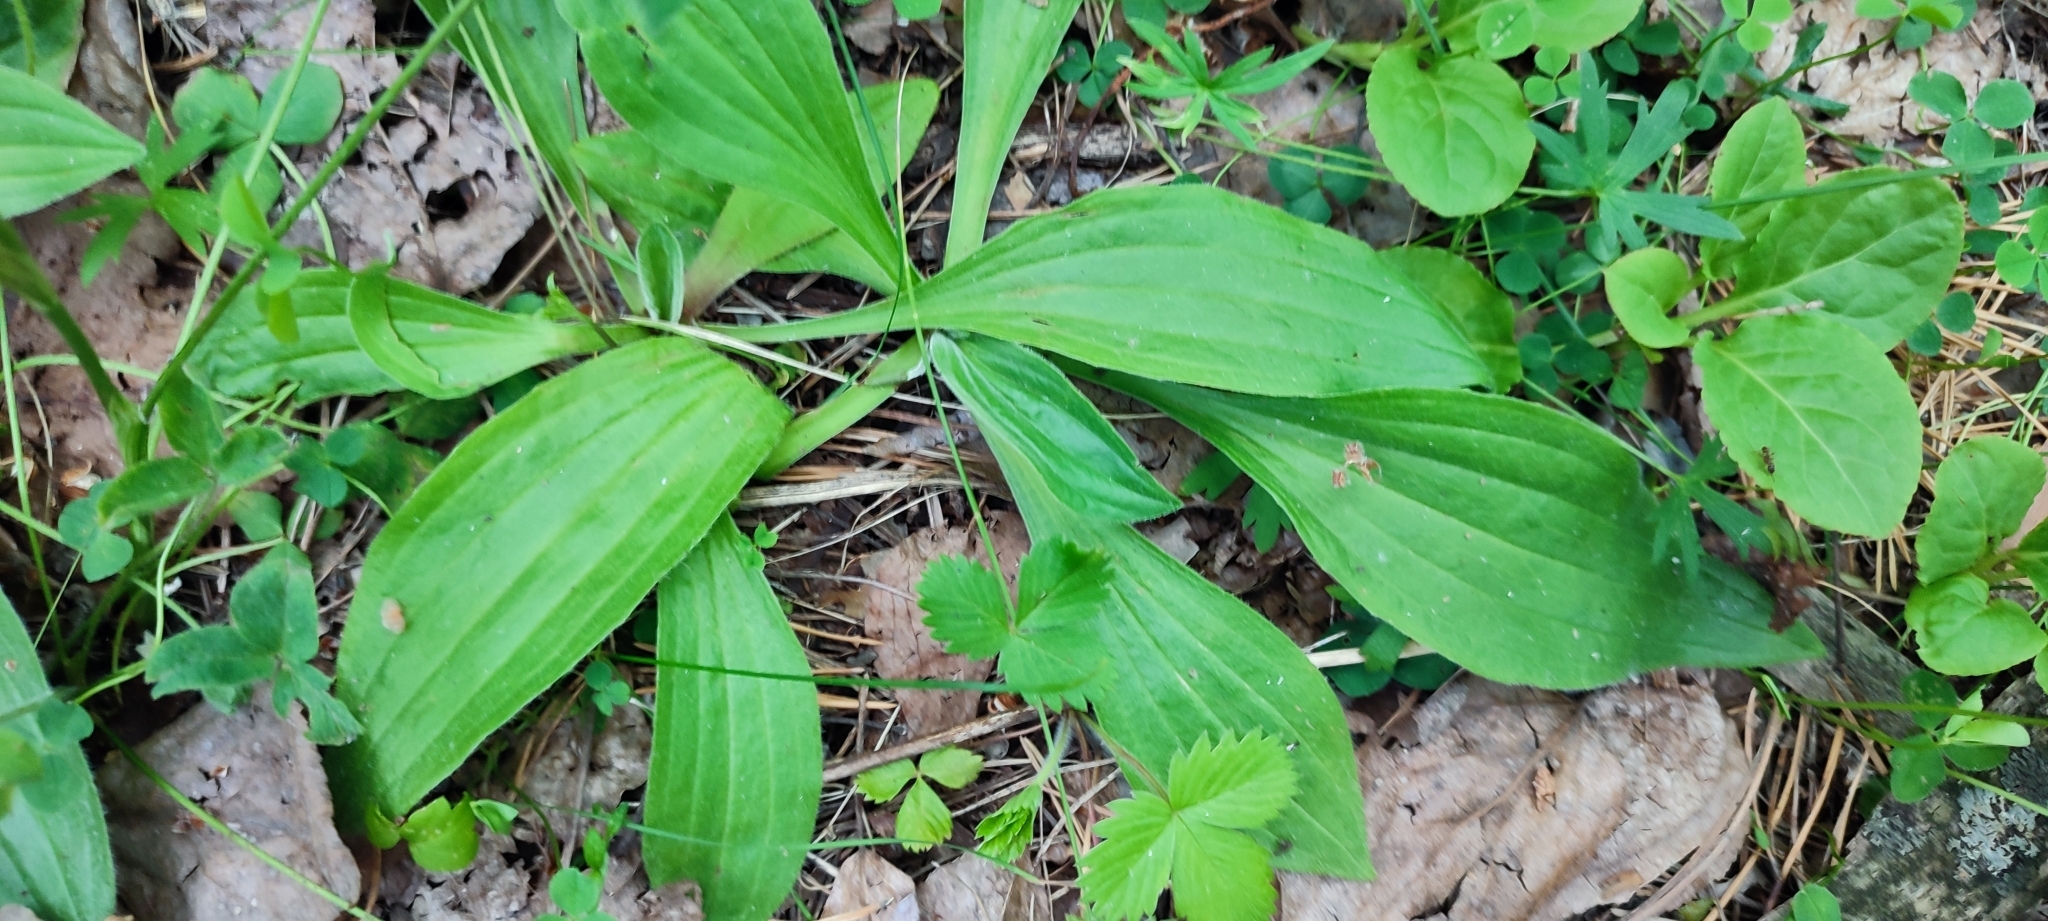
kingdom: Plantae
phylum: Tracheophyta
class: Magnoliopsida
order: Lamiales
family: Plantaginaceae
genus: Plantago
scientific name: Plantago media
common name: Hoary plantain
